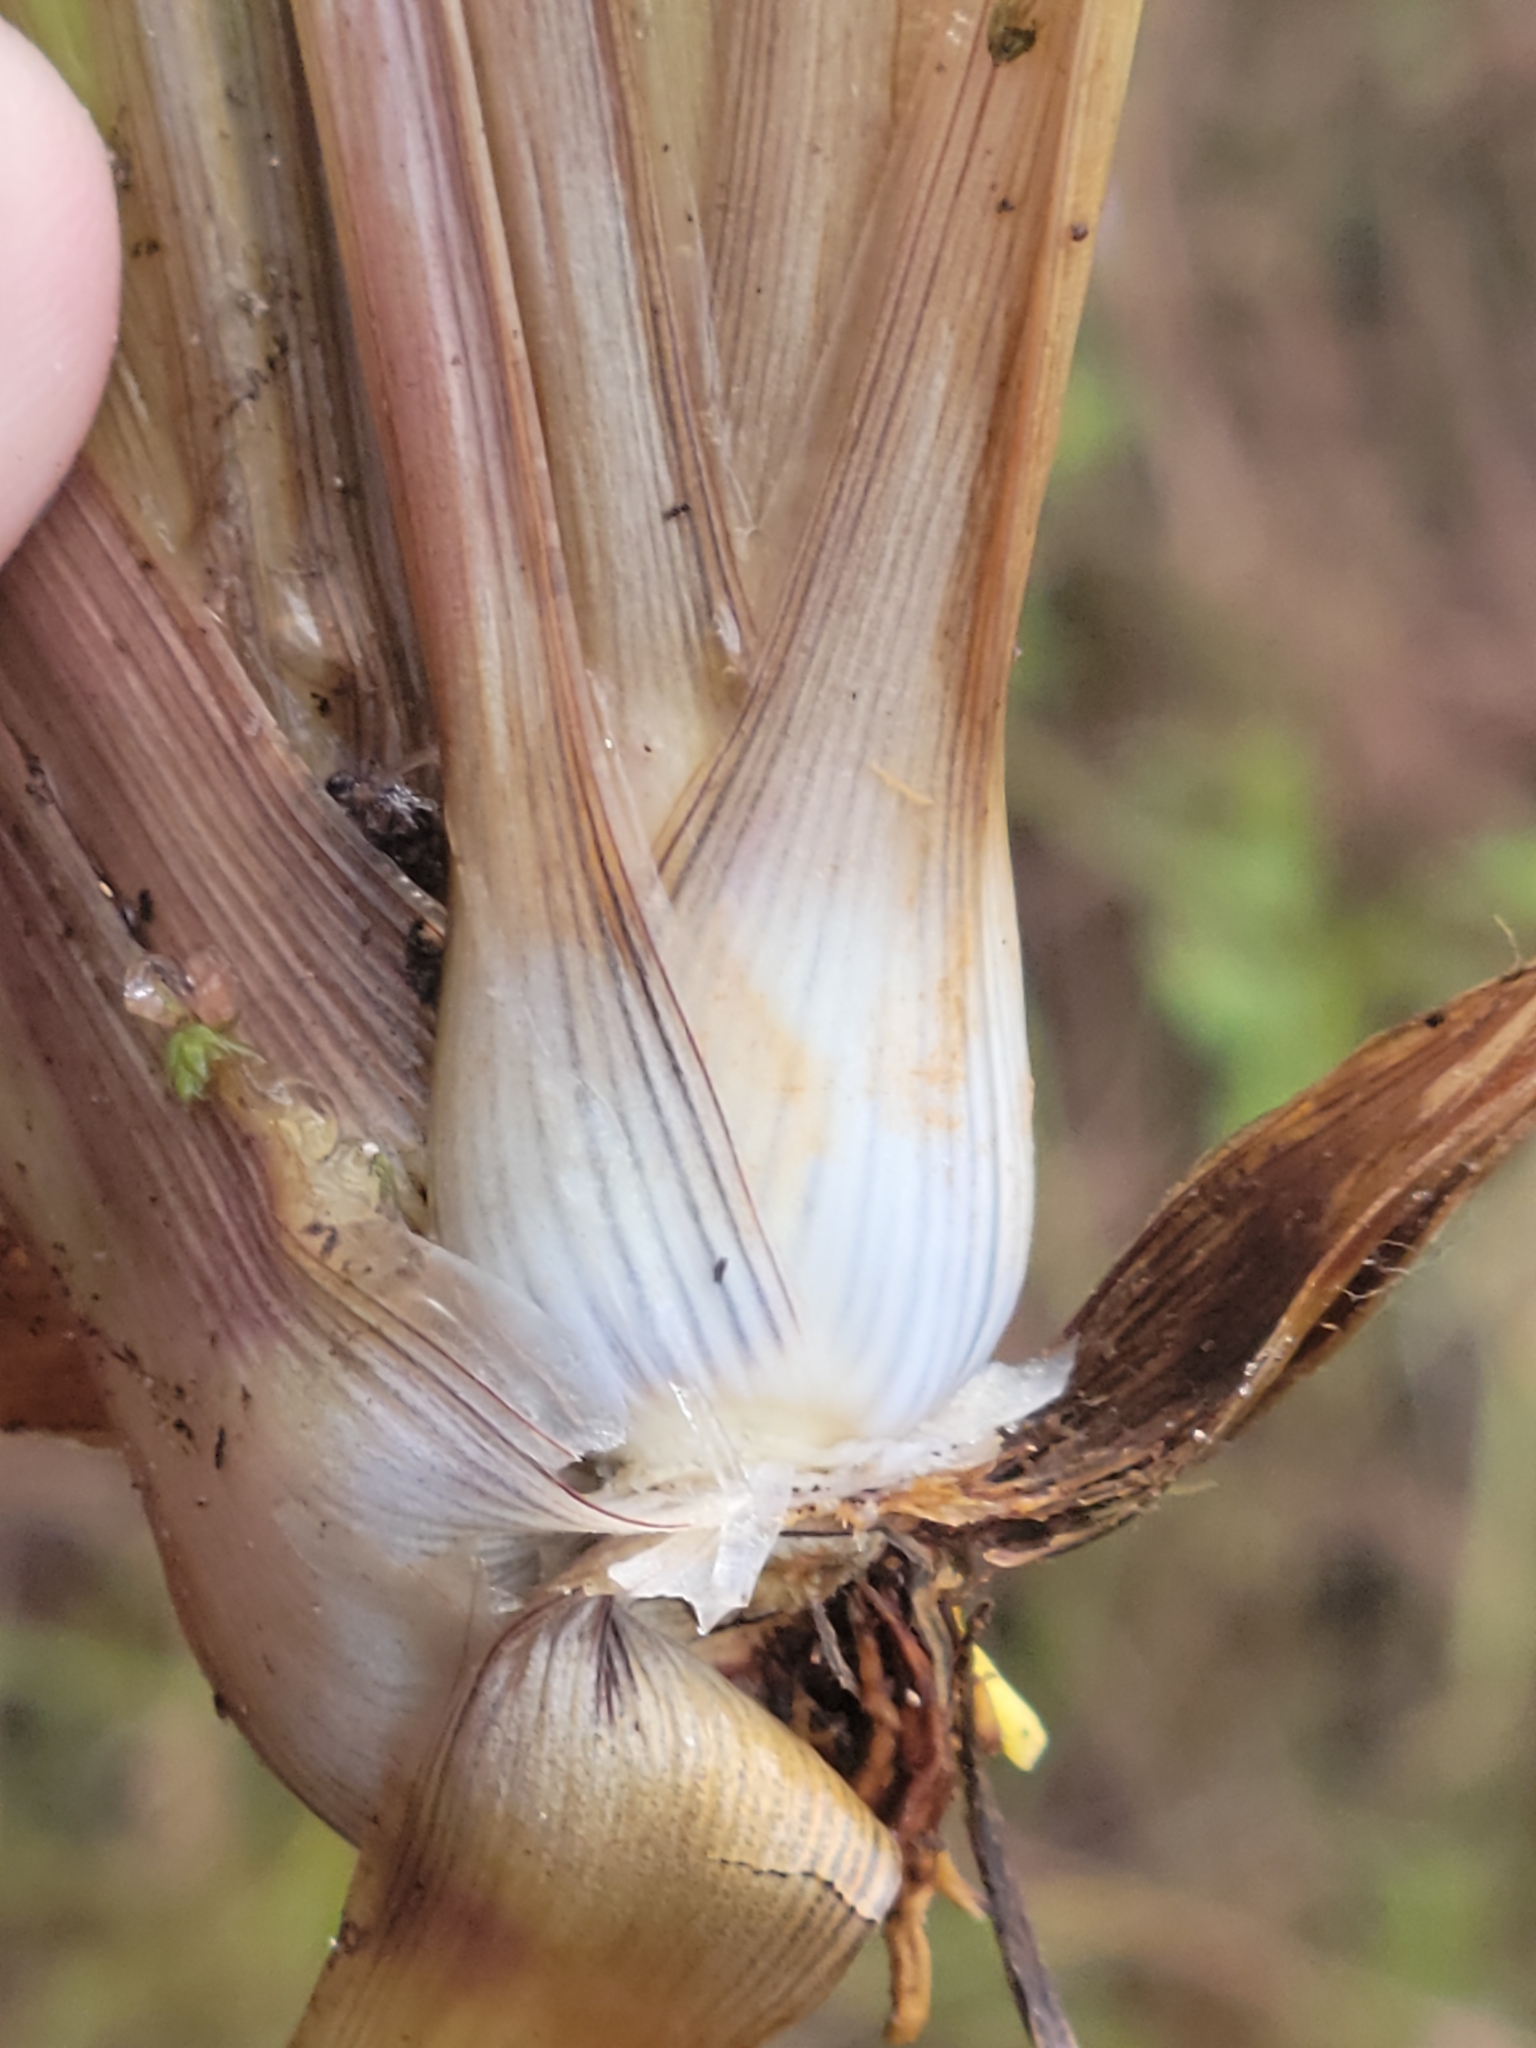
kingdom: Plantae
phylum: Tracheophyta
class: Liliopsida
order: Poales
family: Xyridaceae
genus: Xyris
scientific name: Xyris ambigua
